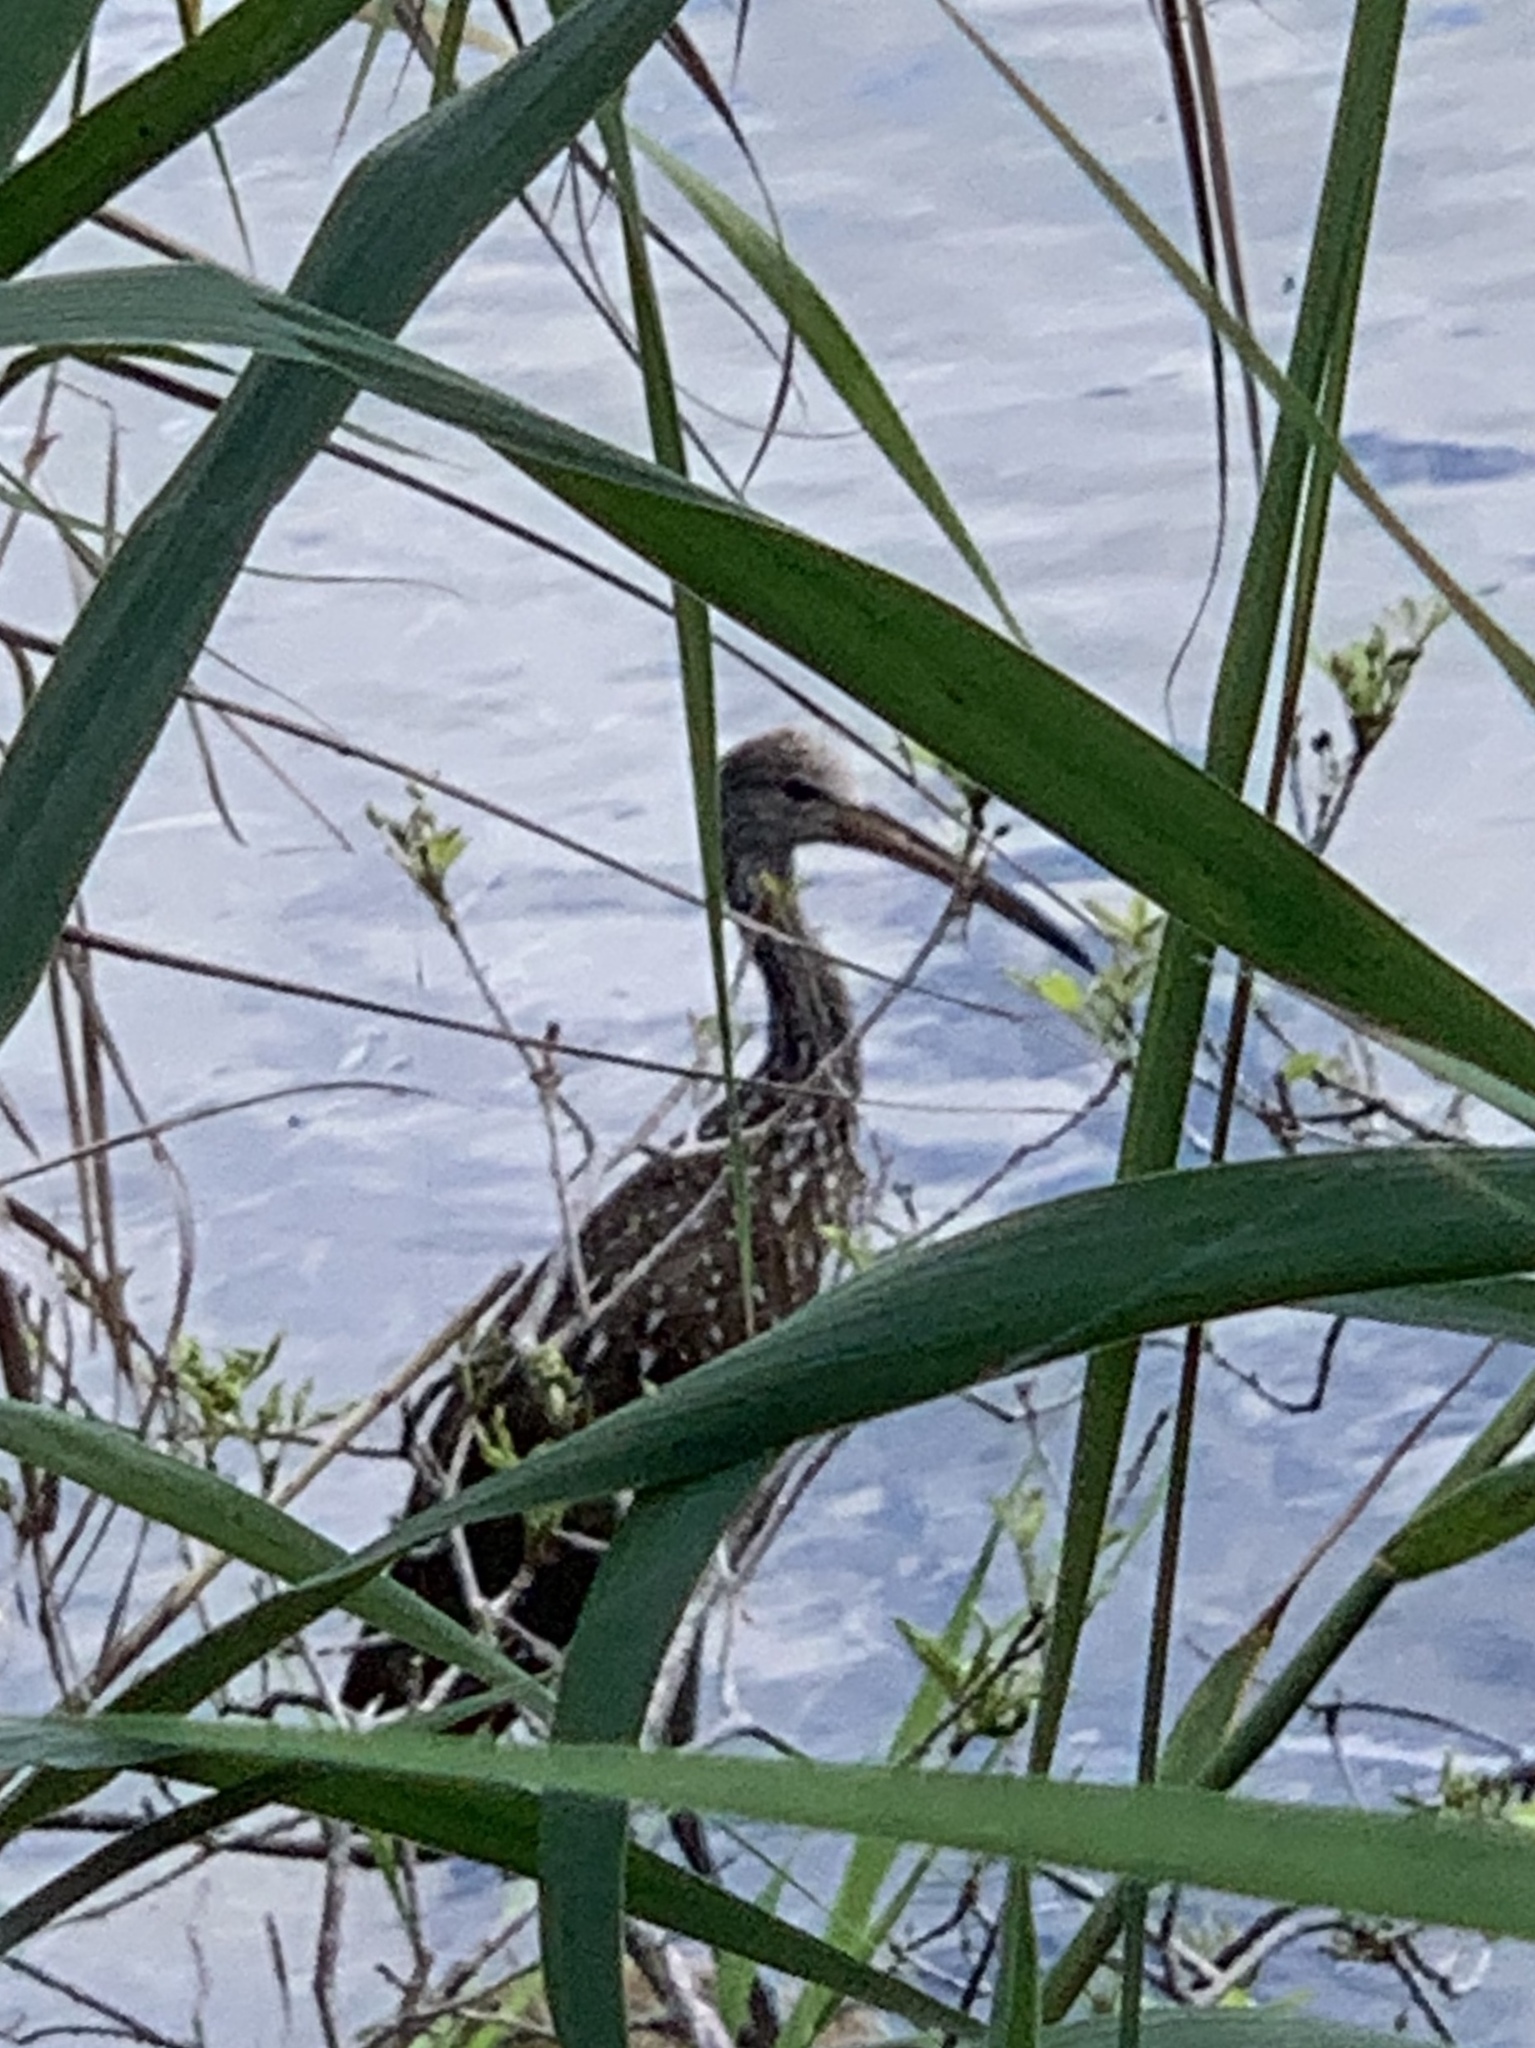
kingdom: Animalia
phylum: Chordata
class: Aves
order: Gruiformes
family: Aramidae
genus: Aramus
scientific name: Aramus guarauna
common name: Limpkin
